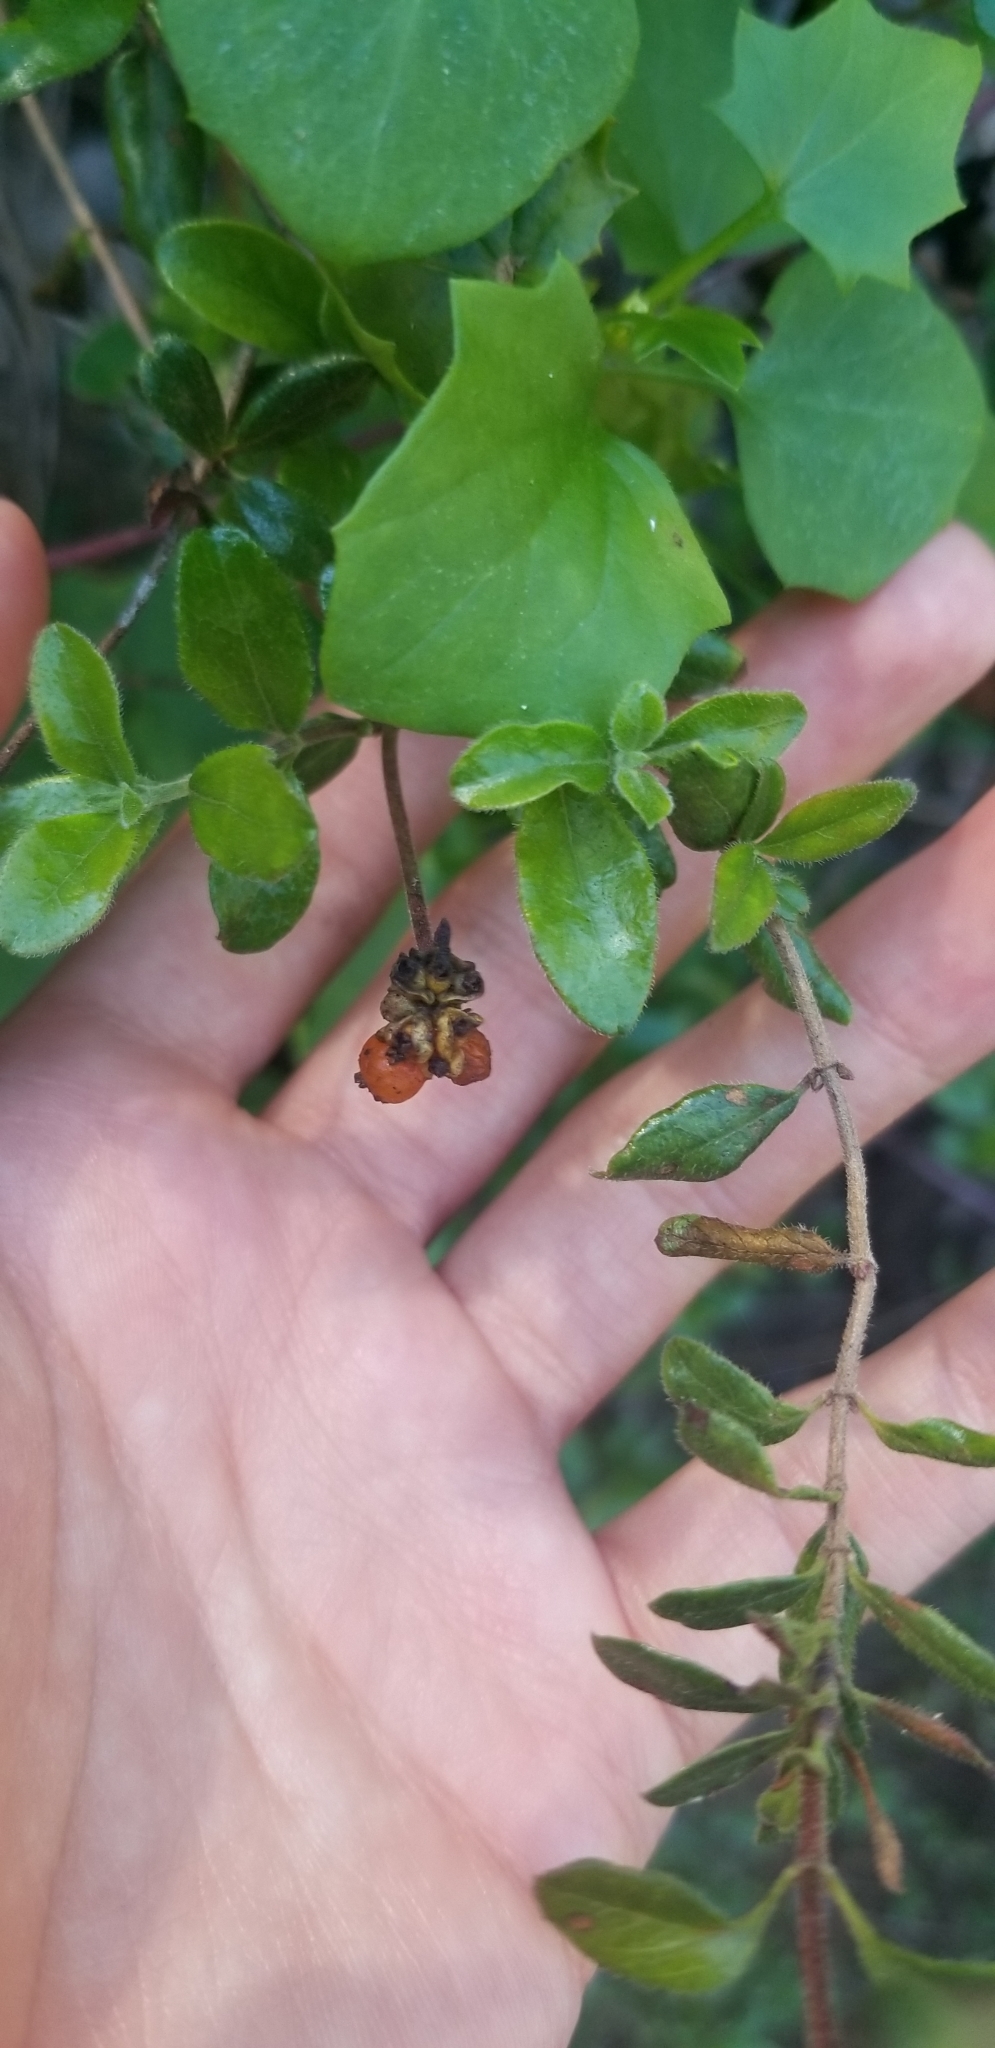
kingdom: Plantae
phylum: Tracheophyta
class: Magnoliopsida
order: Dipsacales
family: Caprifoliaceae
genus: Lonicera
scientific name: Lonicera subspicata
